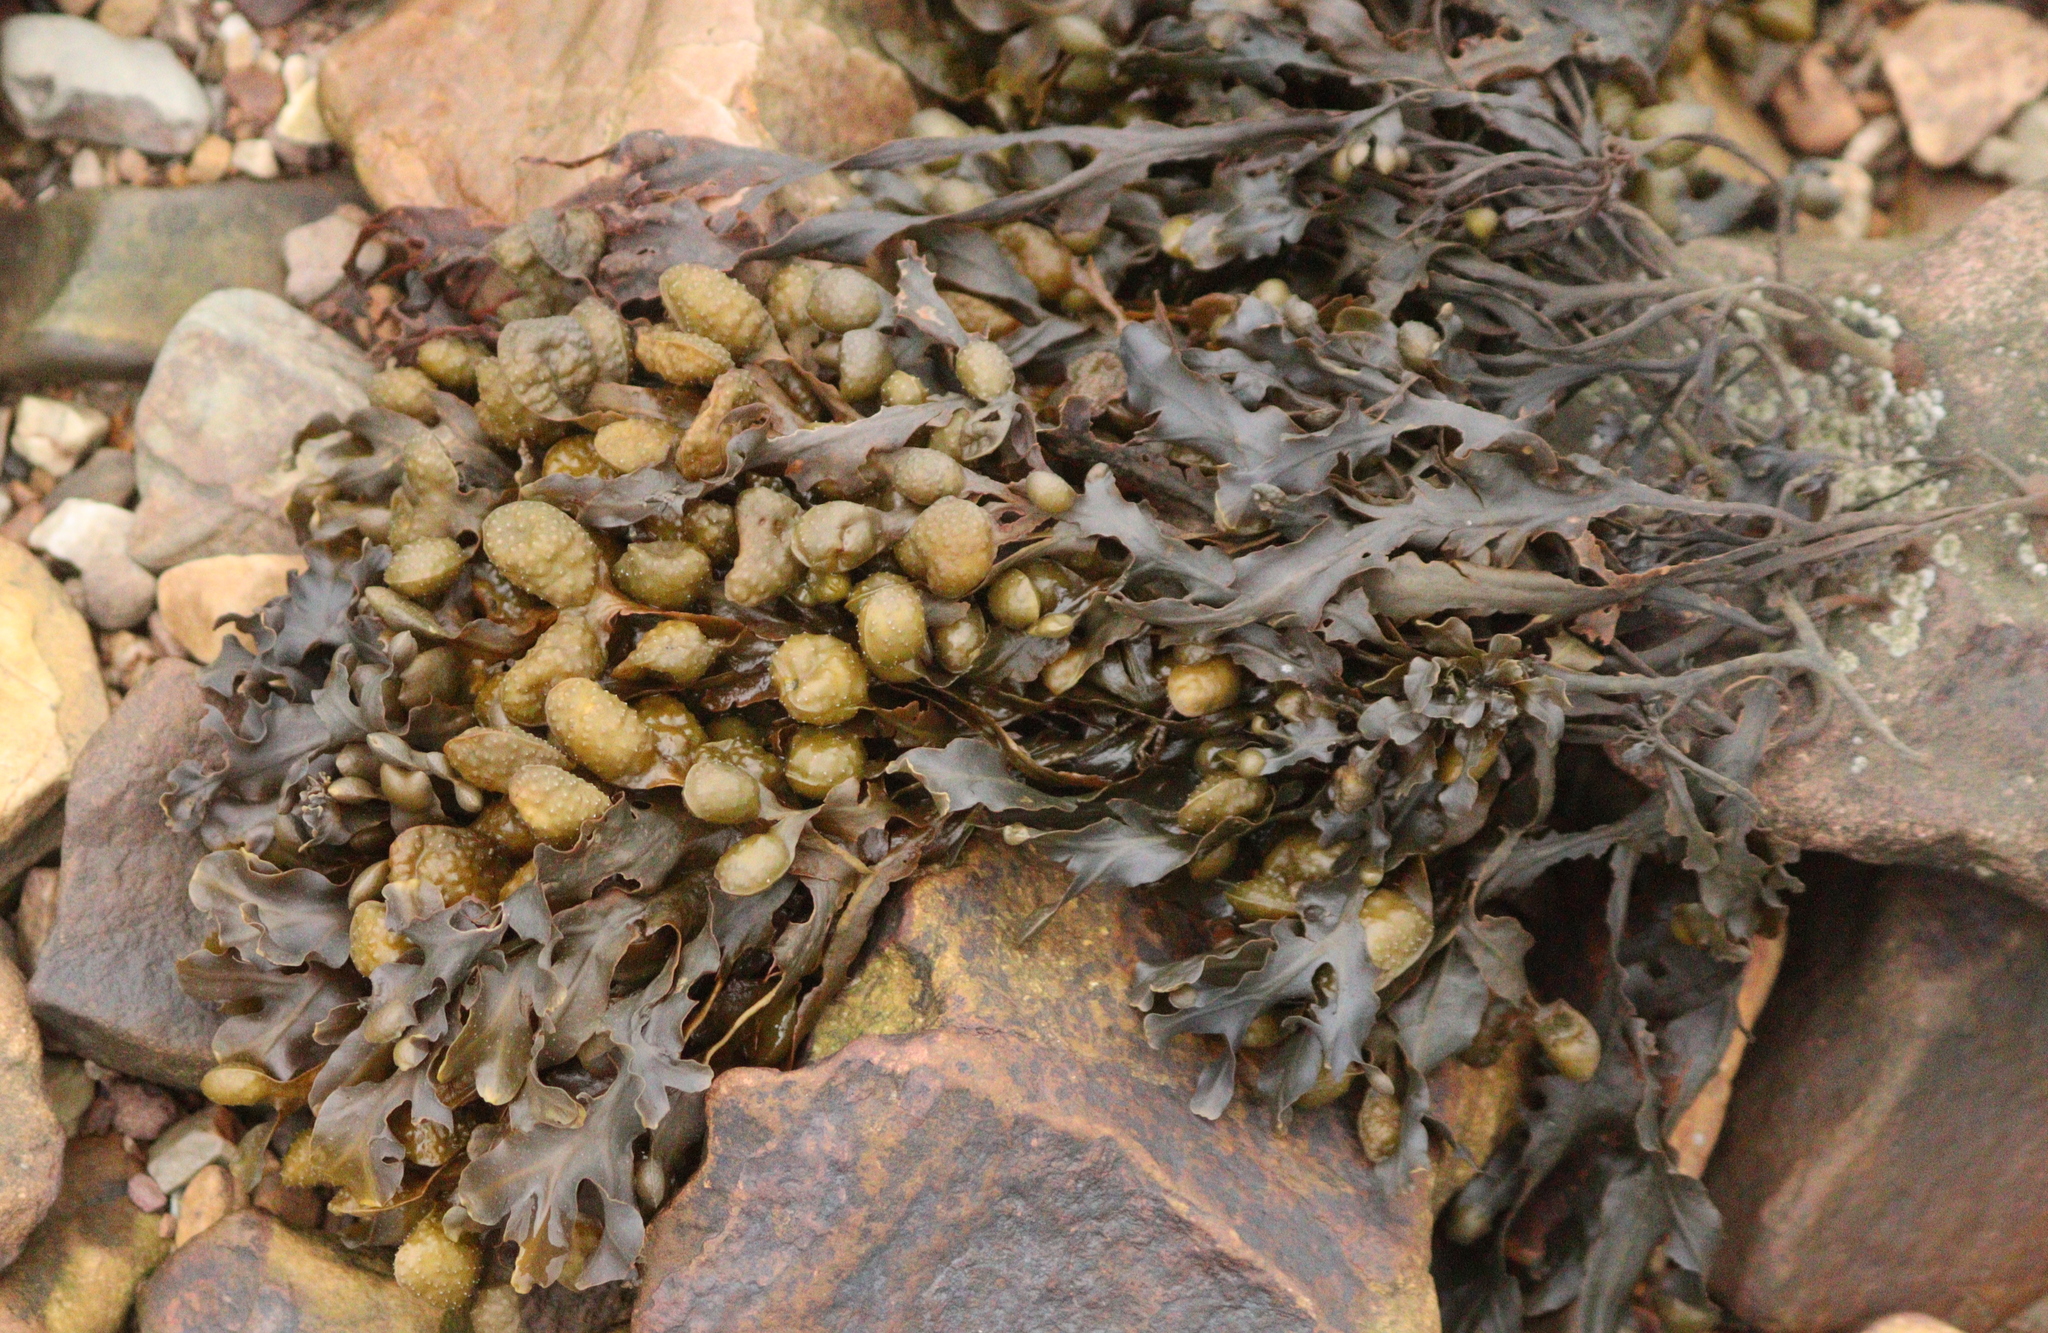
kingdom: Chromista
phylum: Ochrophyta
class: Phaeophyceae
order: Fucales
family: Fucaceae
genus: Fucus
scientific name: Fucus spiralis
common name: Spiral wrack
